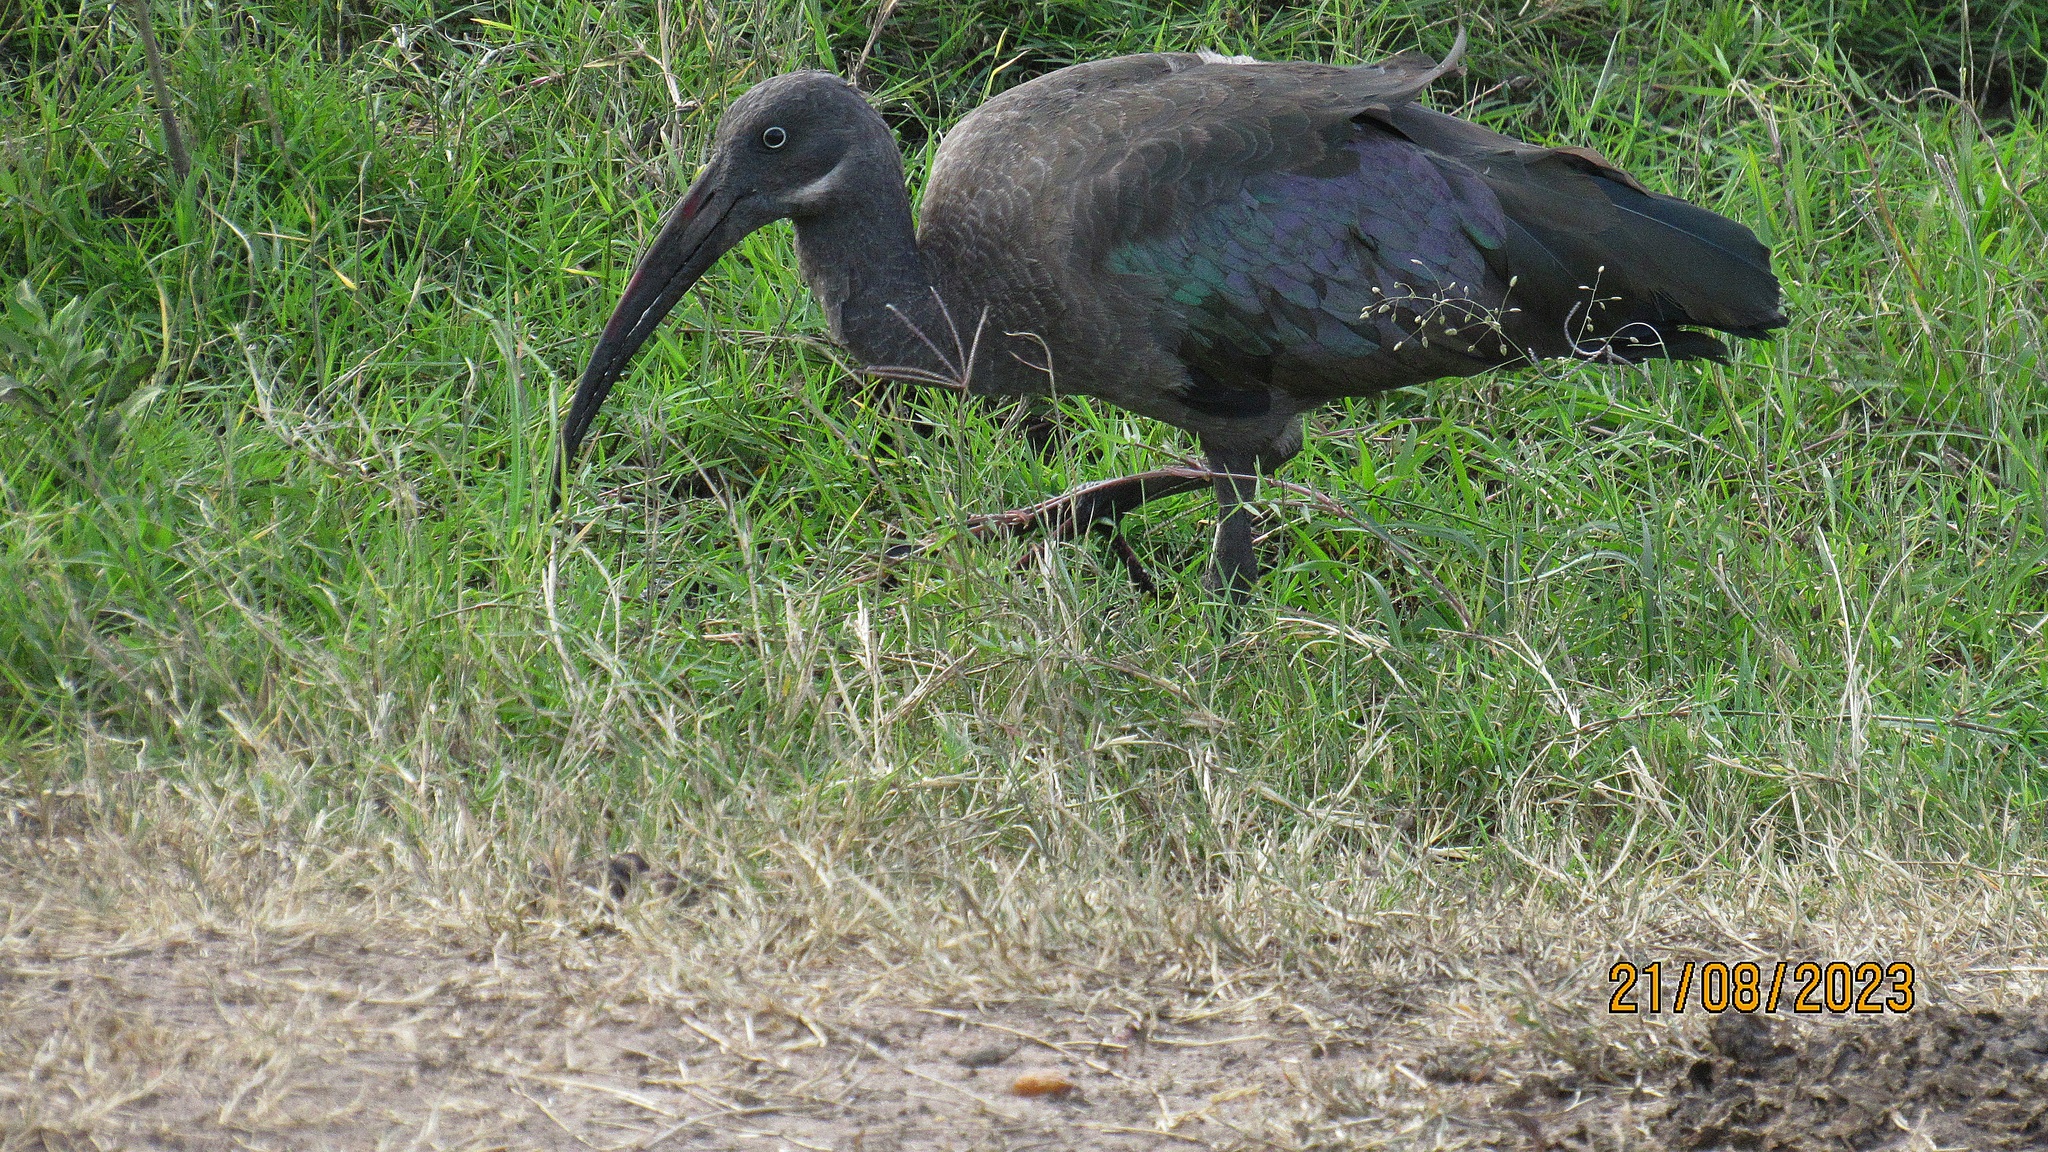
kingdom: Animalia
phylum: Chordata
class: Aves
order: Pelecaniformes
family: Threskiornithidae
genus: Bostrychia
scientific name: Bostrychia hagedash
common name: Hadada ibis
